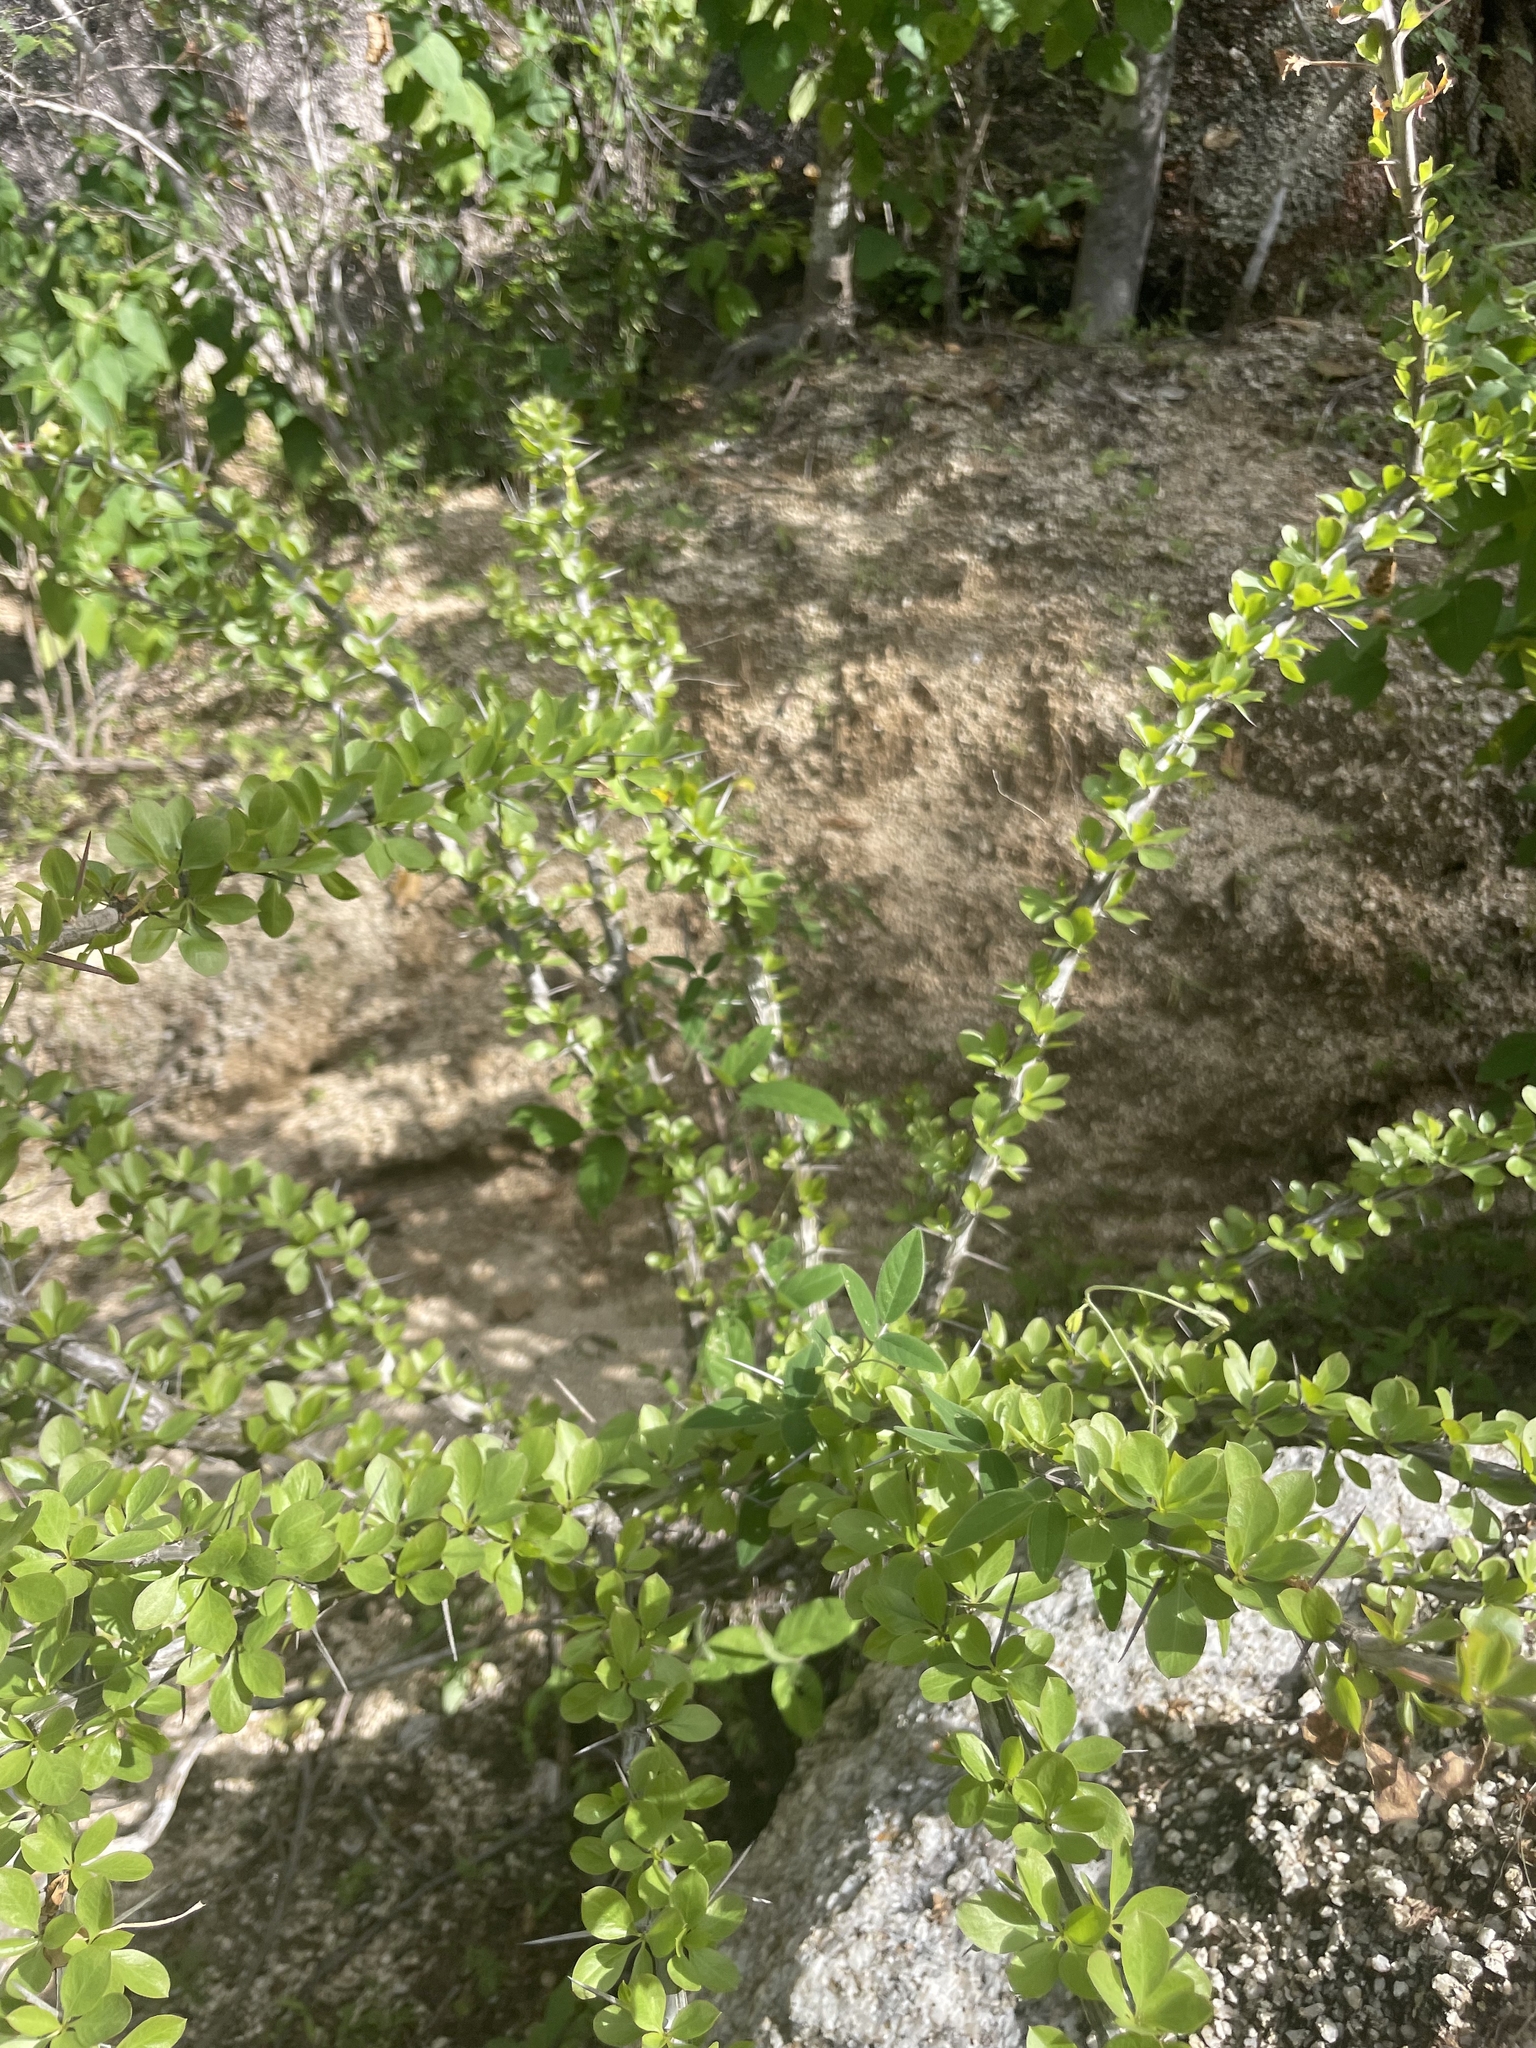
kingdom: Plantae
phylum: Tracheophyta
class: Magnoliopsida
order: Ericales
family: Fouquieriaceae
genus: Fouquieria
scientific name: Fouquieria diguetii
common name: Adam's tree
